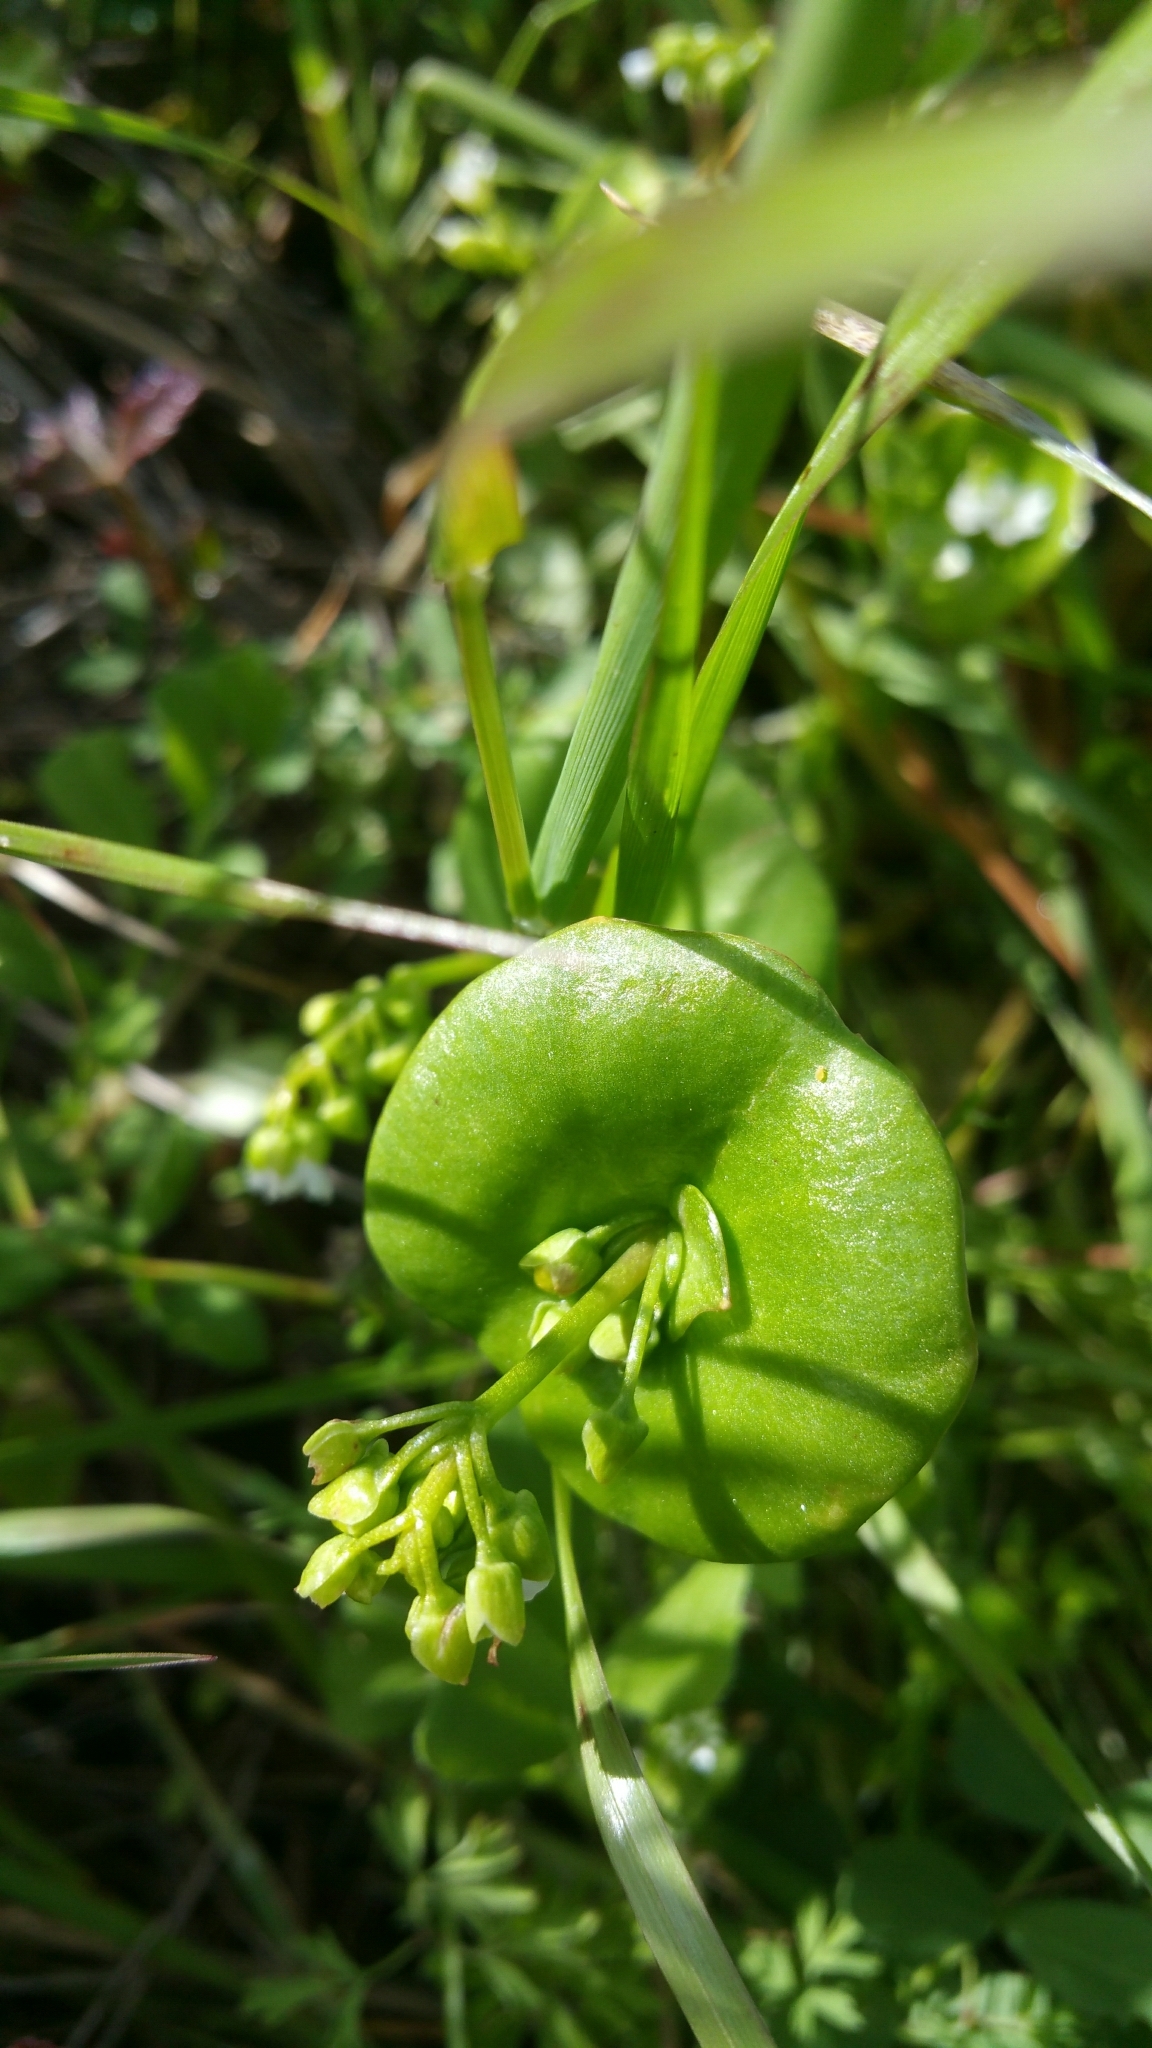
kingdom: Plantae
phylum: Tracheophyta
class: Magnoliopsida
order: Caryophyllales
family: Montiaceae
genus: Claytonia
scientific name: Claytonia perfoliata
